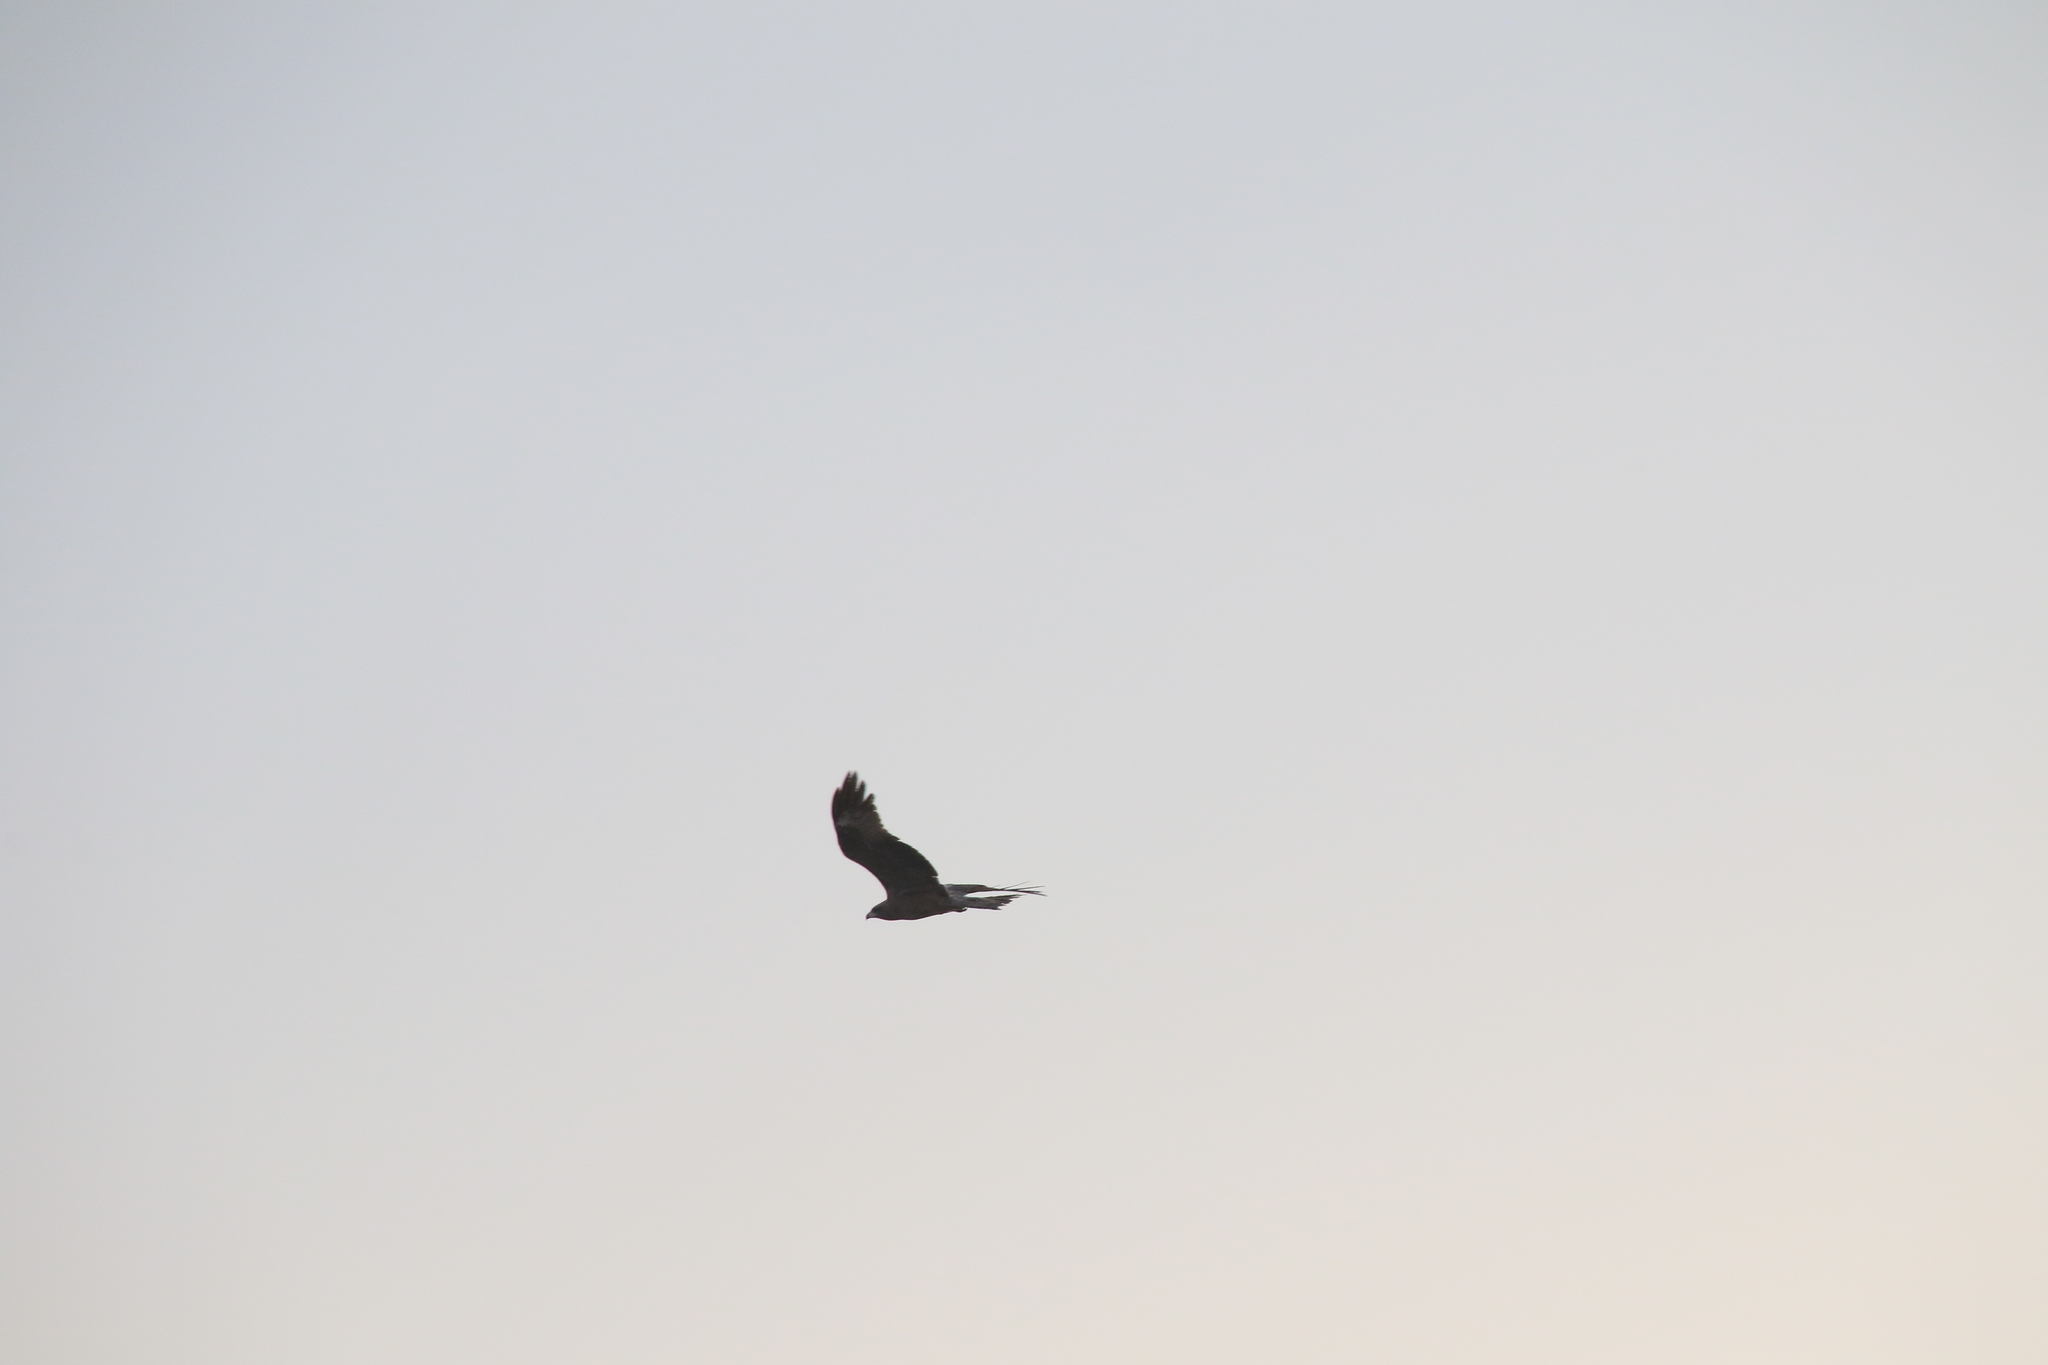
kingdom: Animalia
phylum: Chordata
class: Aves
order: Accipitriformes
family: Accipitridae
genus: Milvus
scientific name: Milvus migrans
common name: Black kite
